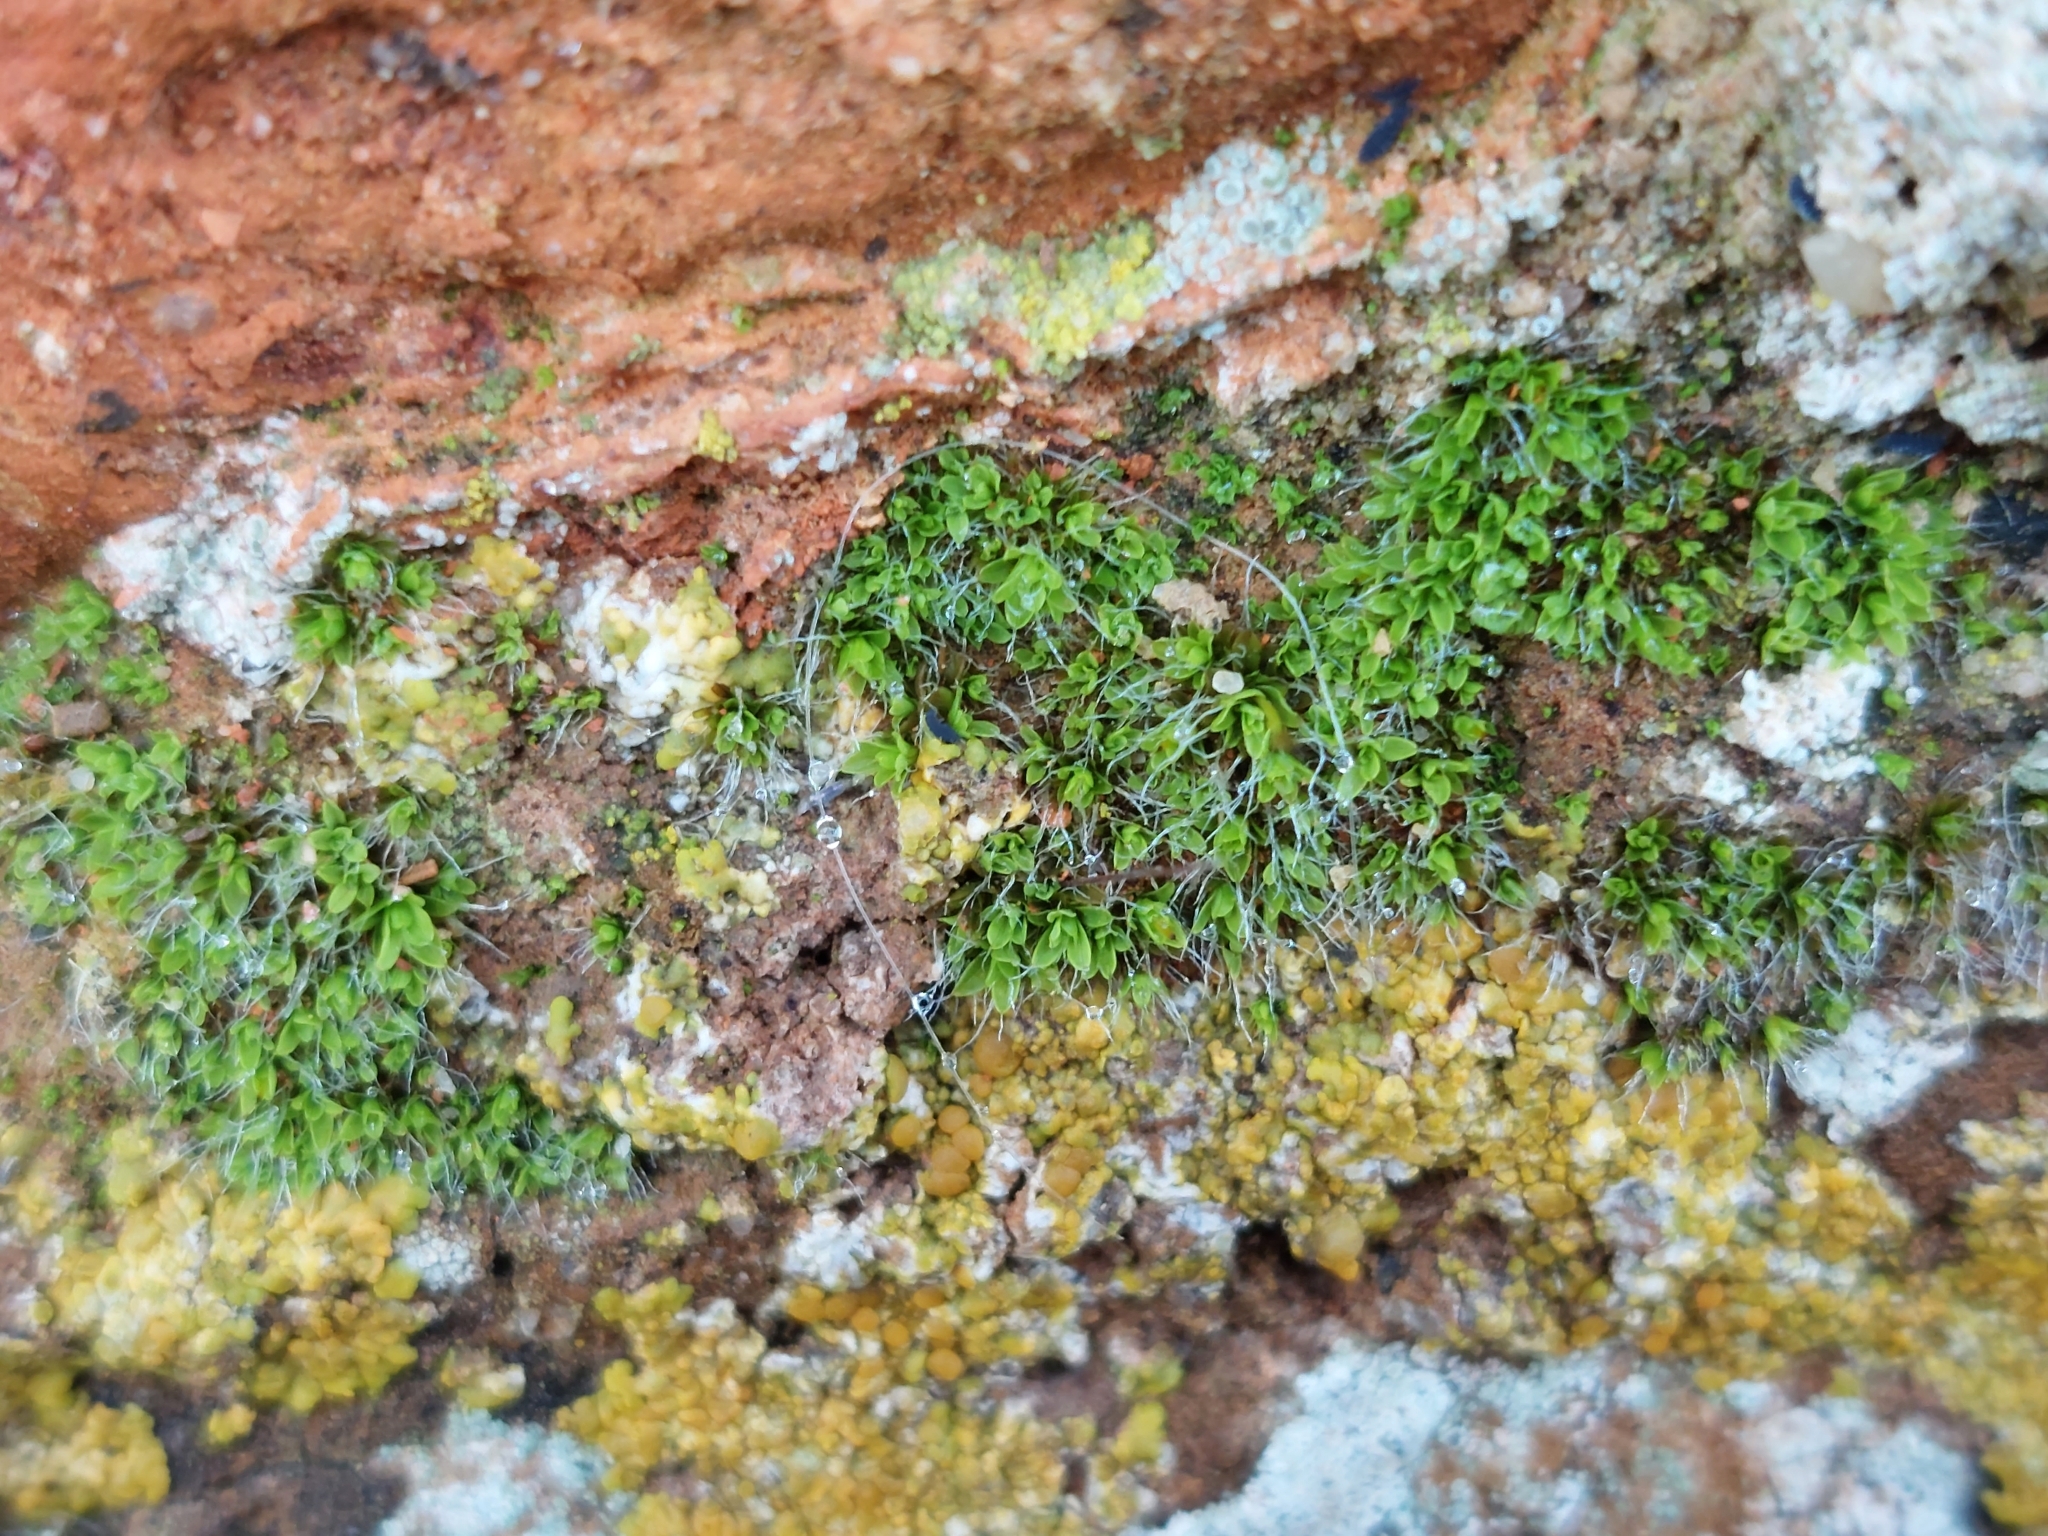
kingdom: Plantae
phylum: Bryophyta
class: Bryopsida
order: Pottiales
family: Pottiaceae
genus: Tortula
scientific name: Tortula muralis
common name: Wall screw-moss
